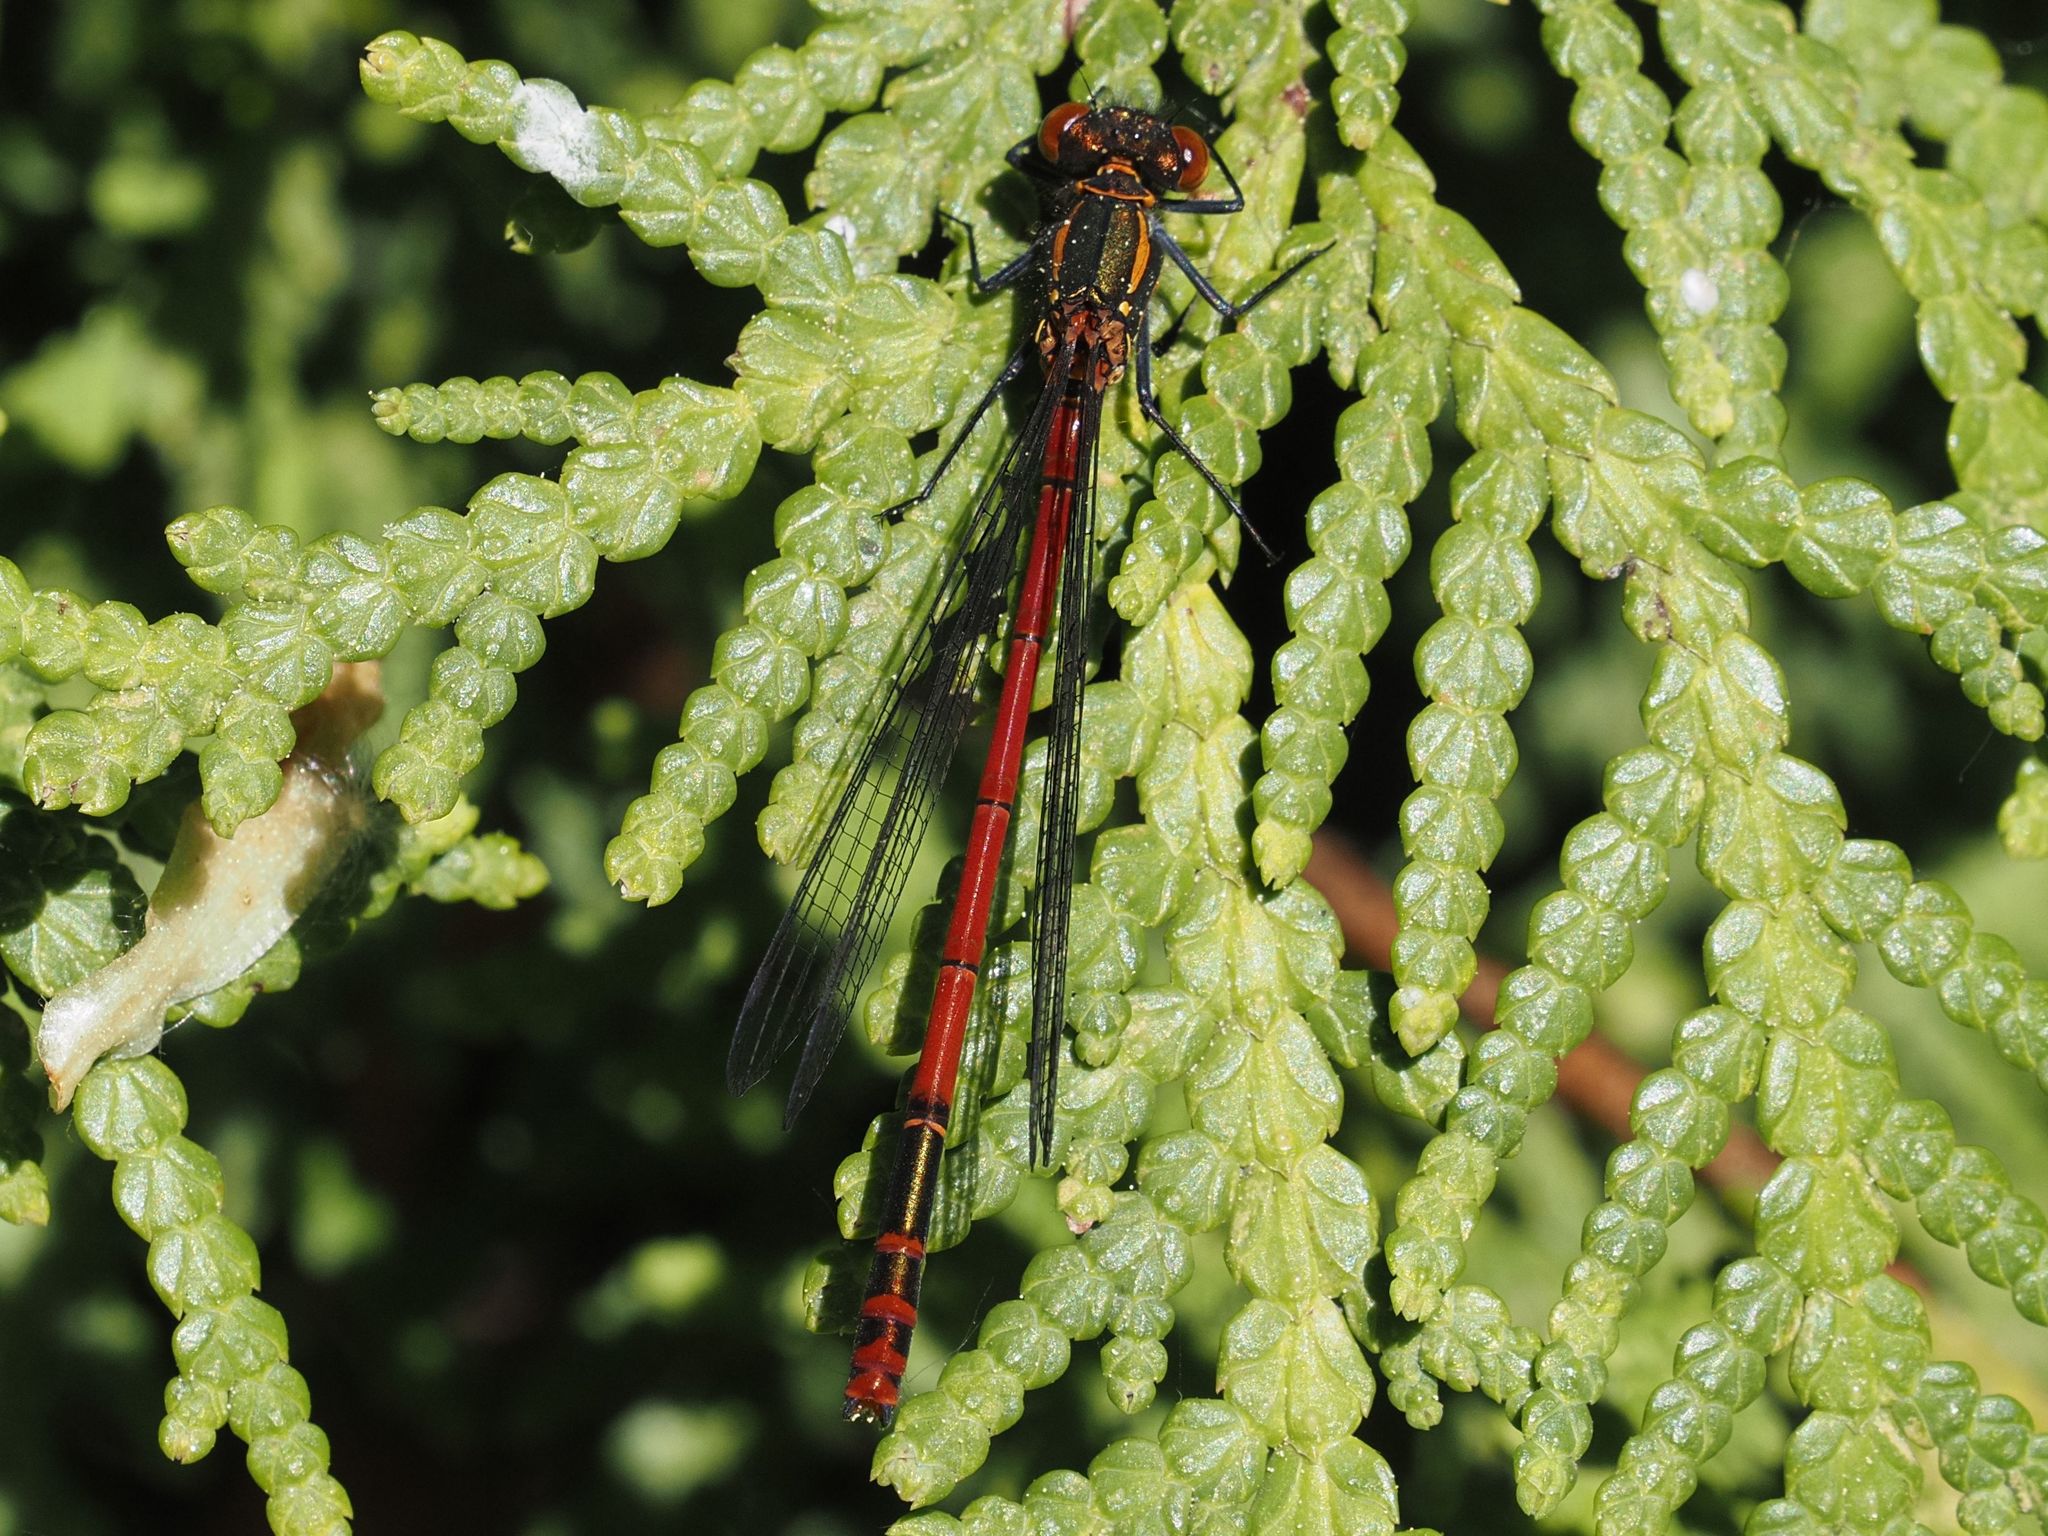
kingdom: Animalia
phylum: Arthropoda
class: Insecta
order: Odonata
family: Coenagrionidae
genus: Pyrrhosoma
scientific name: Pyrrhosoma nymphula
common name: Large red damsel
